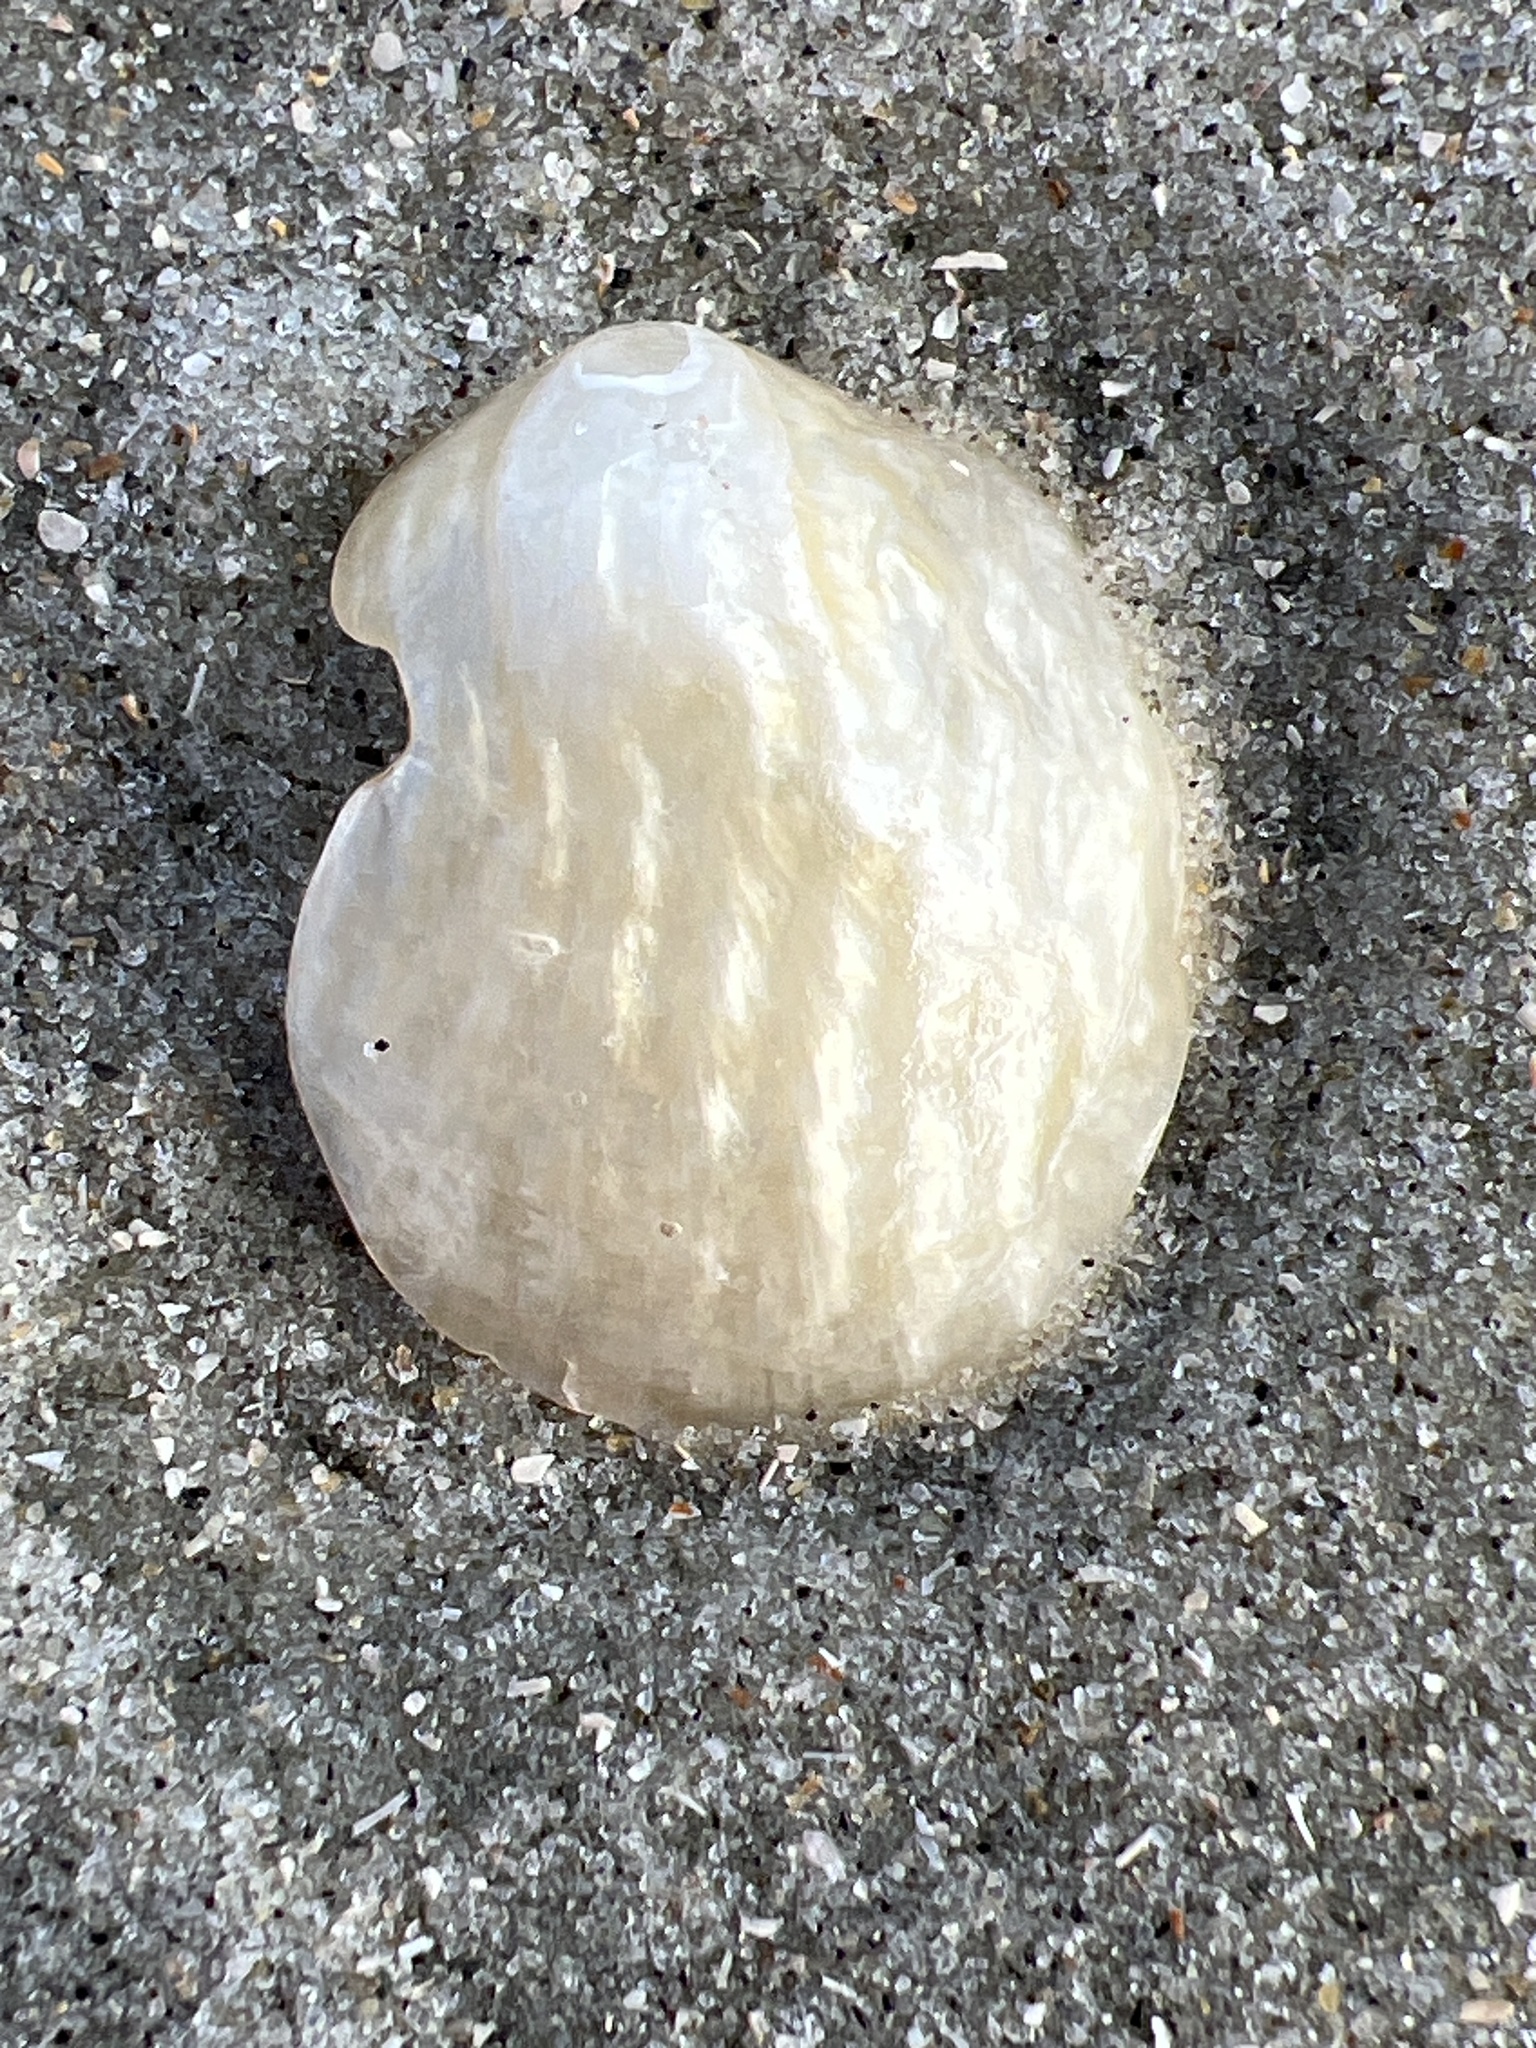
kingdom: Animalia
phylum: Mollusca
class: Bivalvia
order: Pectinida
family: Anomiidae
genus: Anomia
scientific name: Anomia simplex
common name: Common jingle shell
